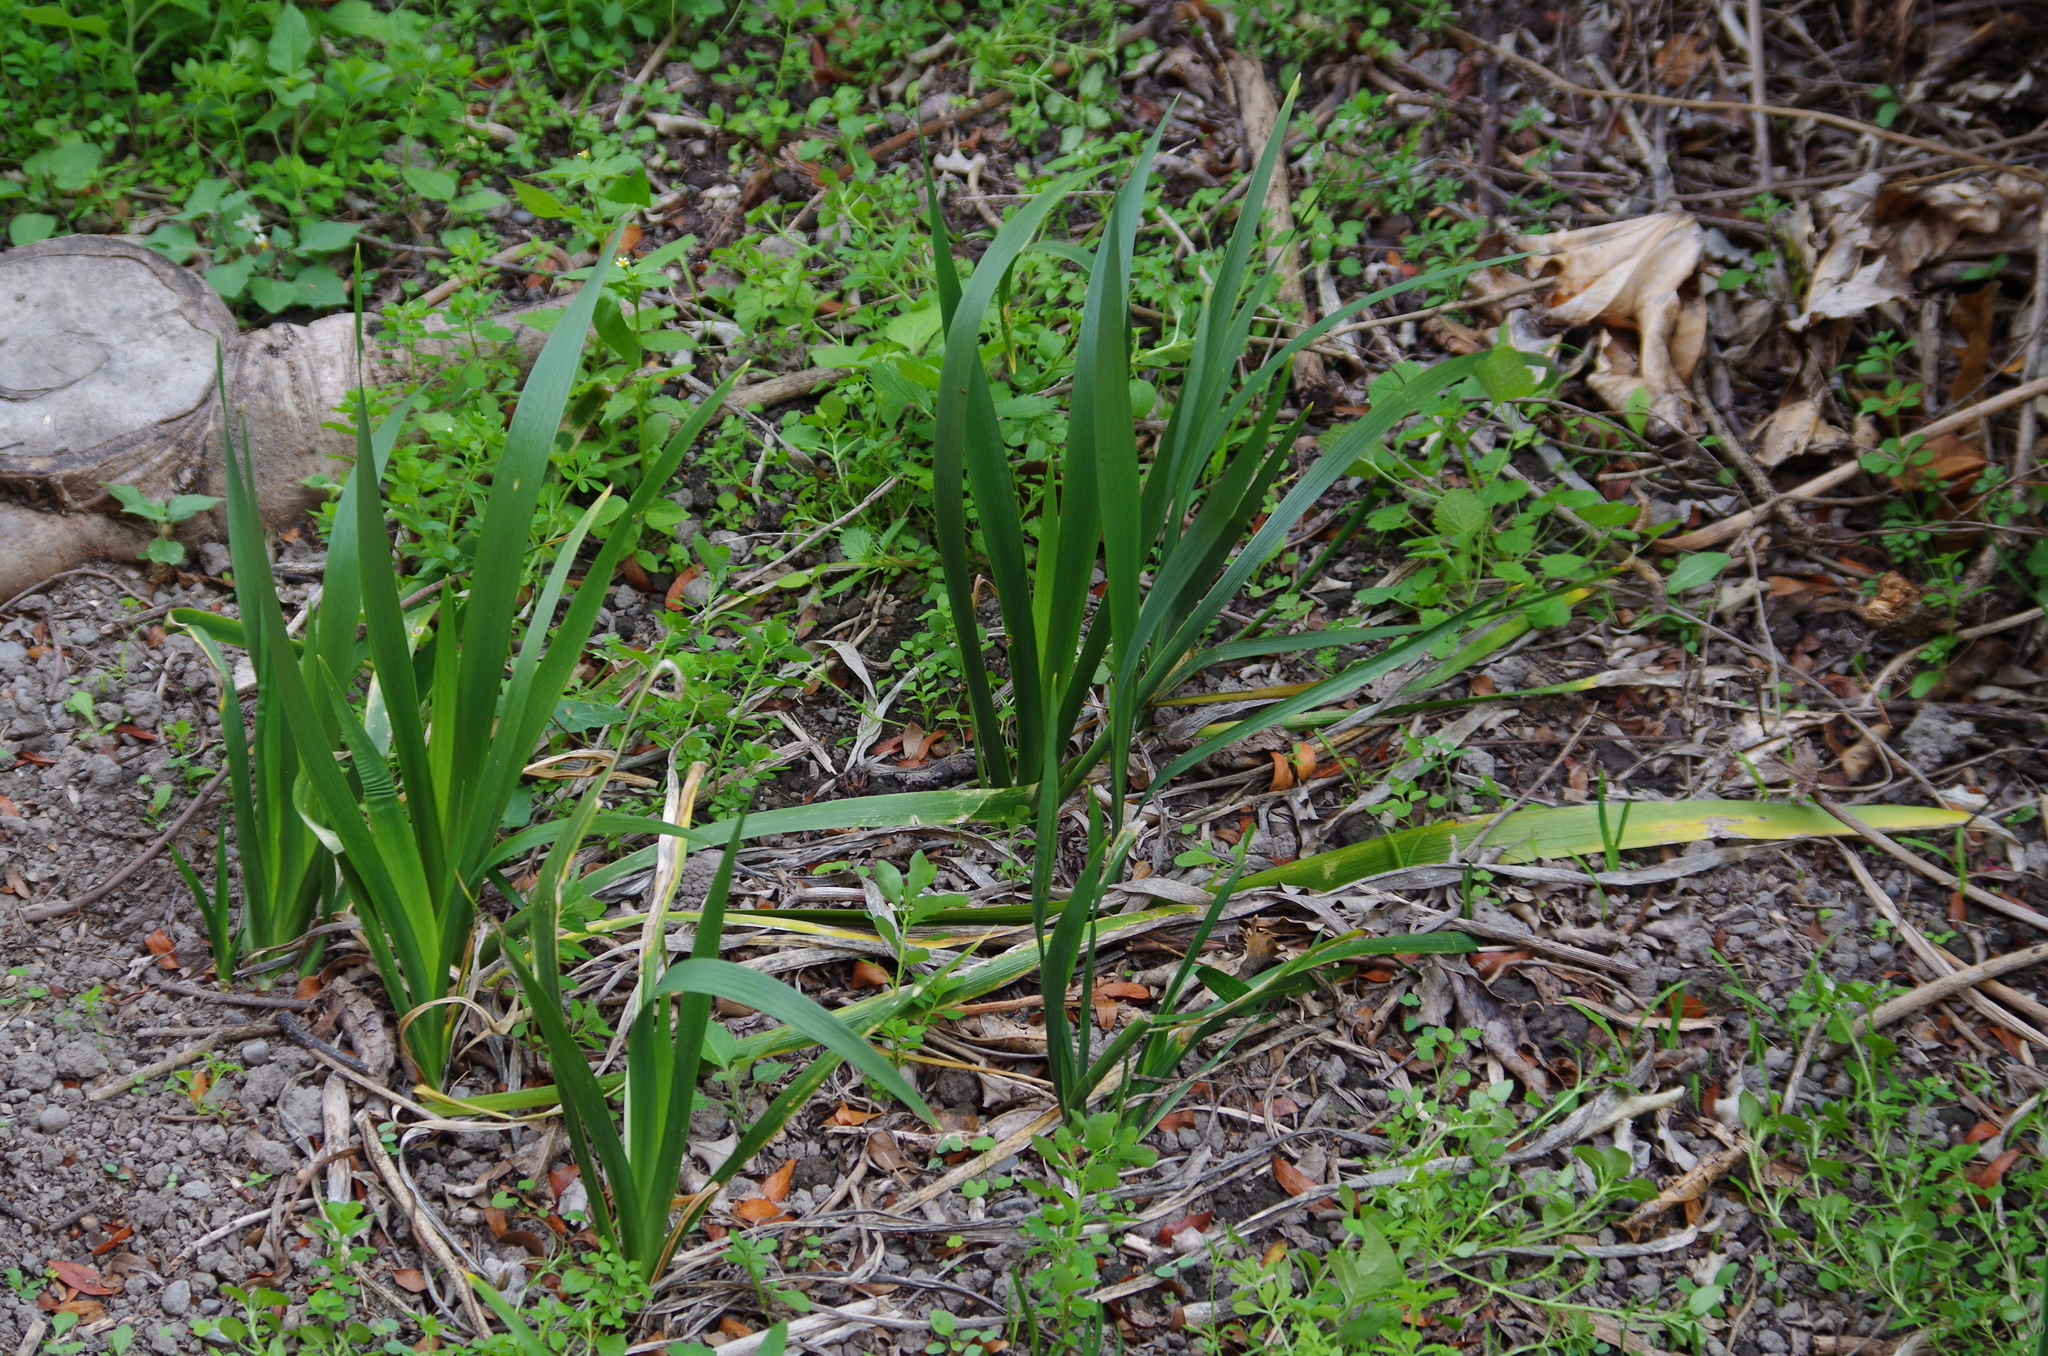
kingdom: Plantae
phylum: Tracheophyta
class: Liliopsida
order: Asparagales
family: Iridaceae
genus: Iris
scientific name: Iris foetidissima
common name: Stinking iris
